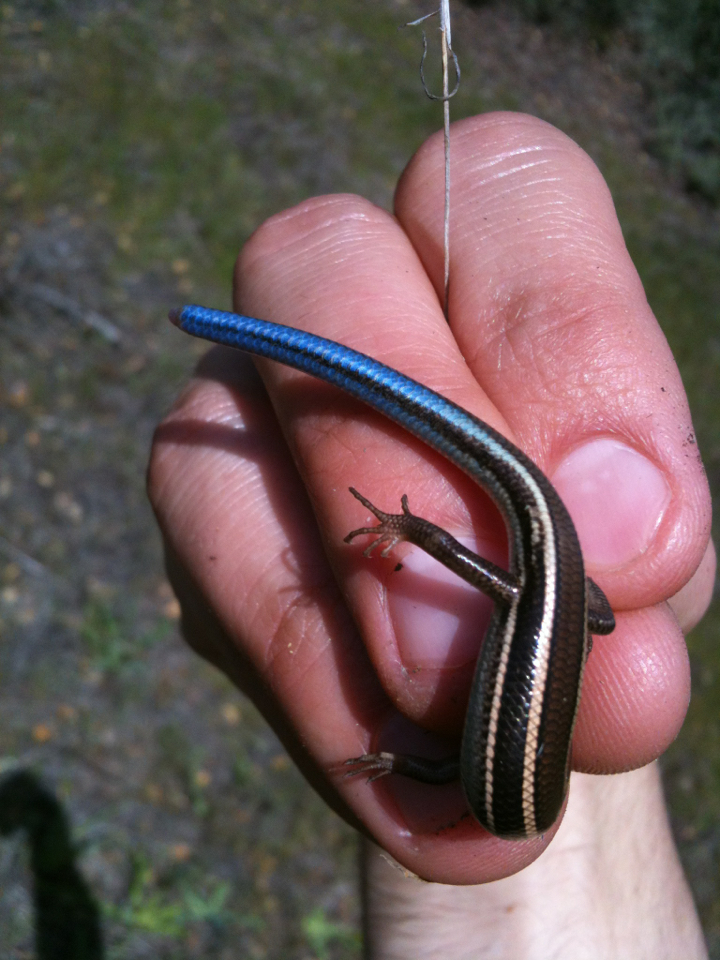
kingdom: Animalia
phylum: Chordata
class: Squamata
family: Scincidae
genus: Plestiodon
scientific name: Plestiodon skiltonianus
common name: Coronado island skink [interparietalis]
